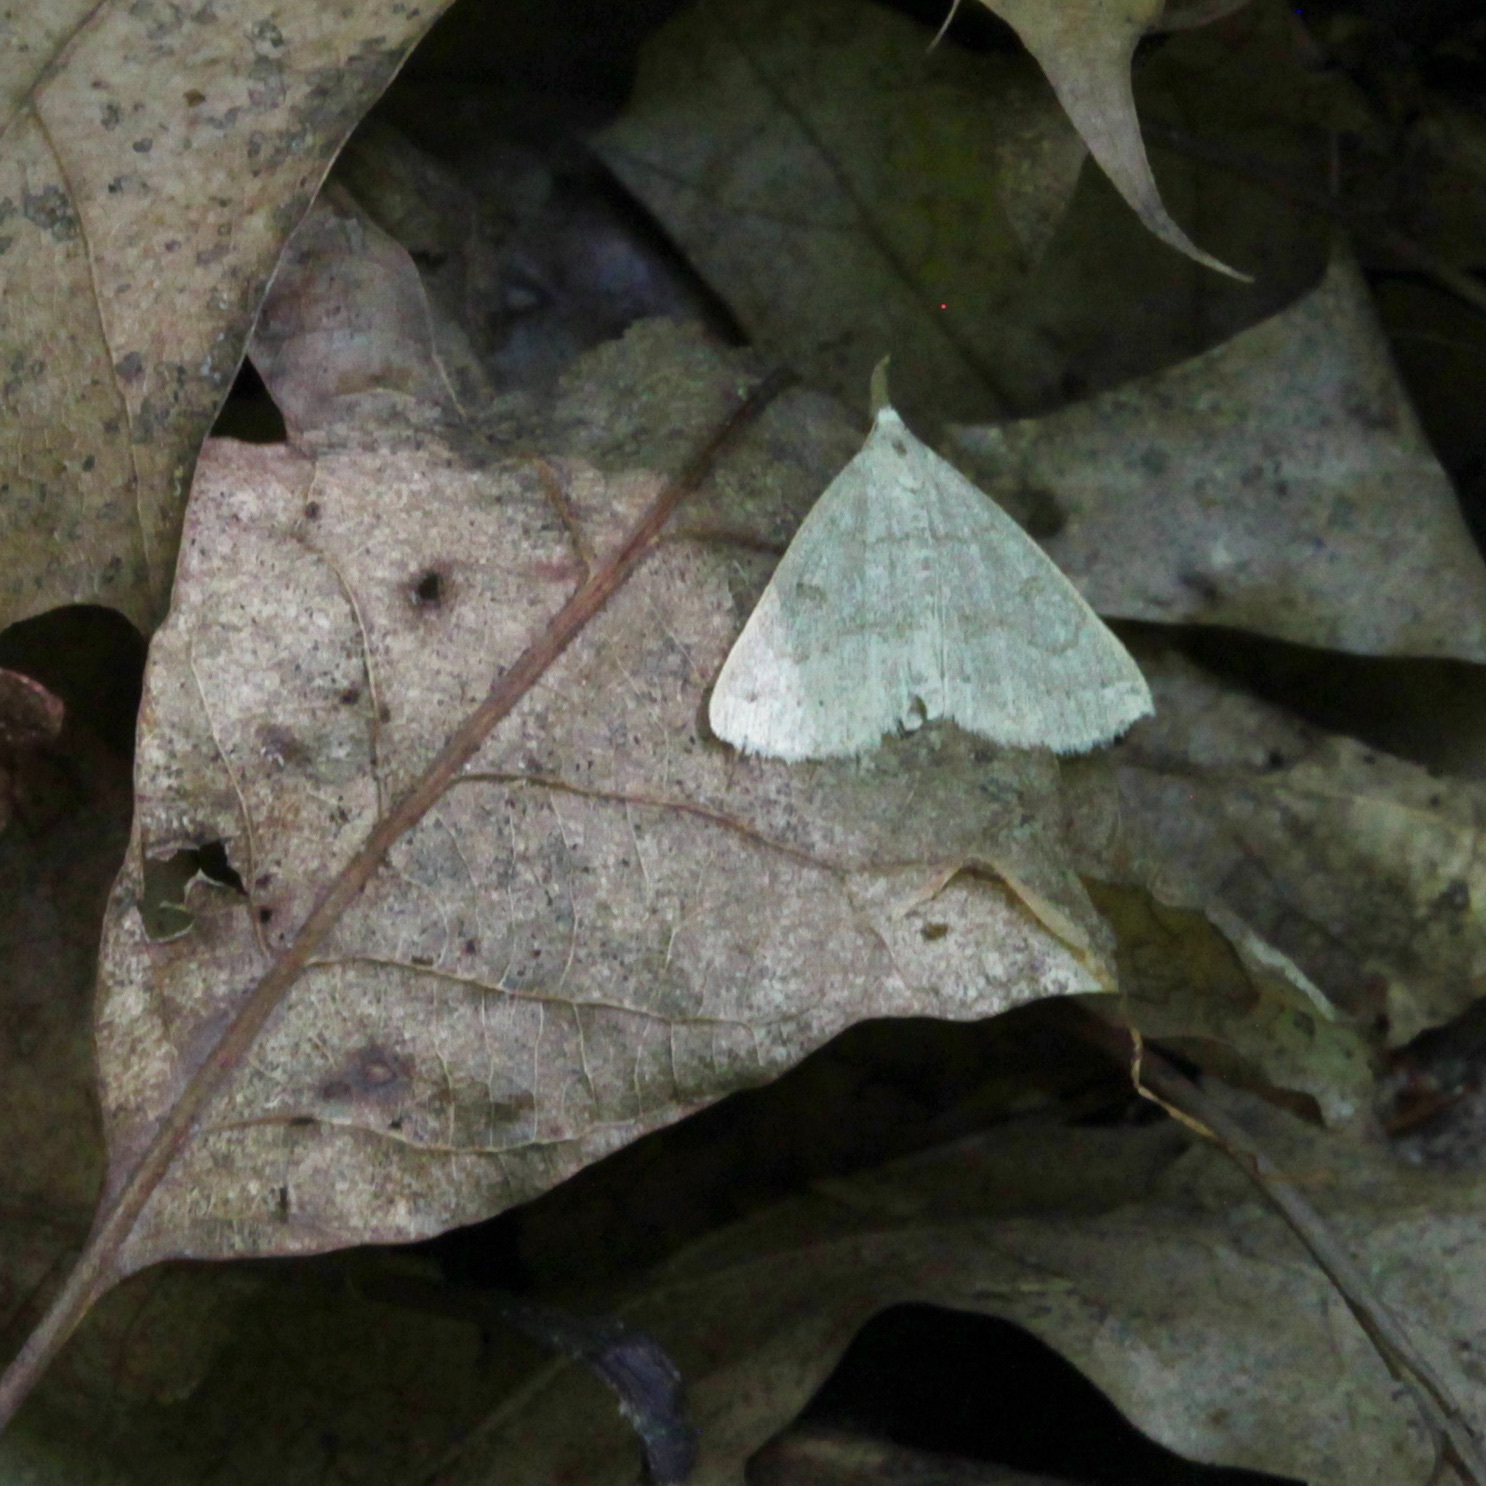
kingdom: Animalia
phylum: Arthropoda
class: Insecta
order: Lepidoptera
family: Erebidae
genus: Macrochilo
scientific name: Macrochilo morbidalis
